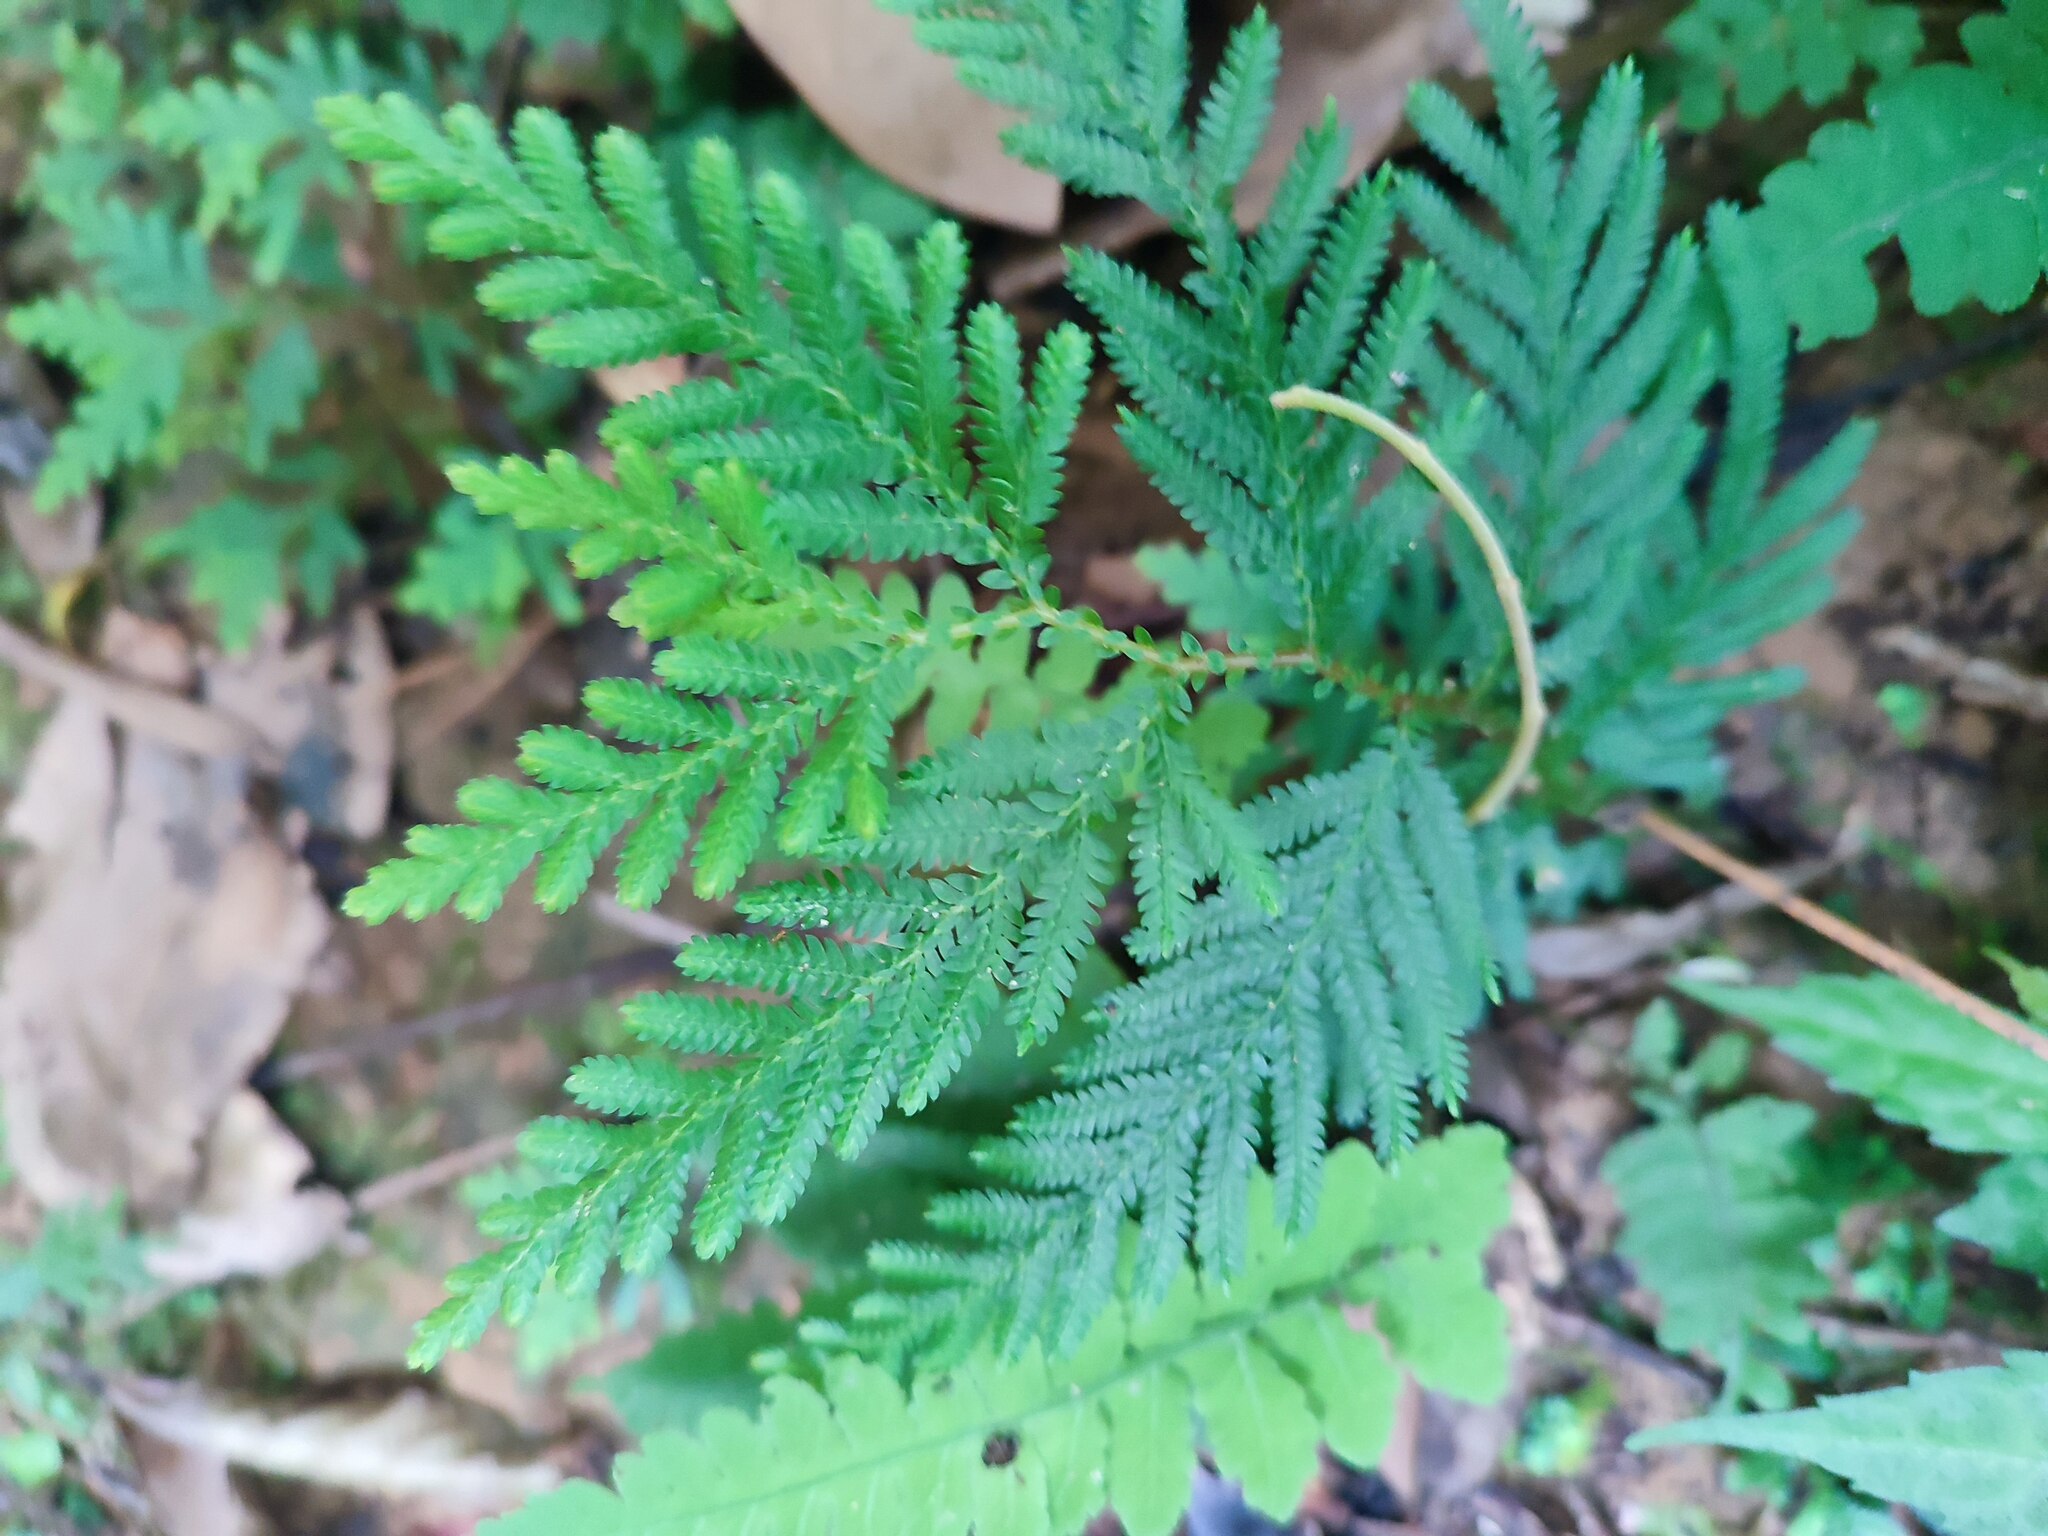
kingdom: Plantae
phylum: Tracheophyta
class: Lycopodiopsida
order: Selaginellales
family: Selaginellaceae
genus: Selaginella
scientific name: Selaginella delicatula
